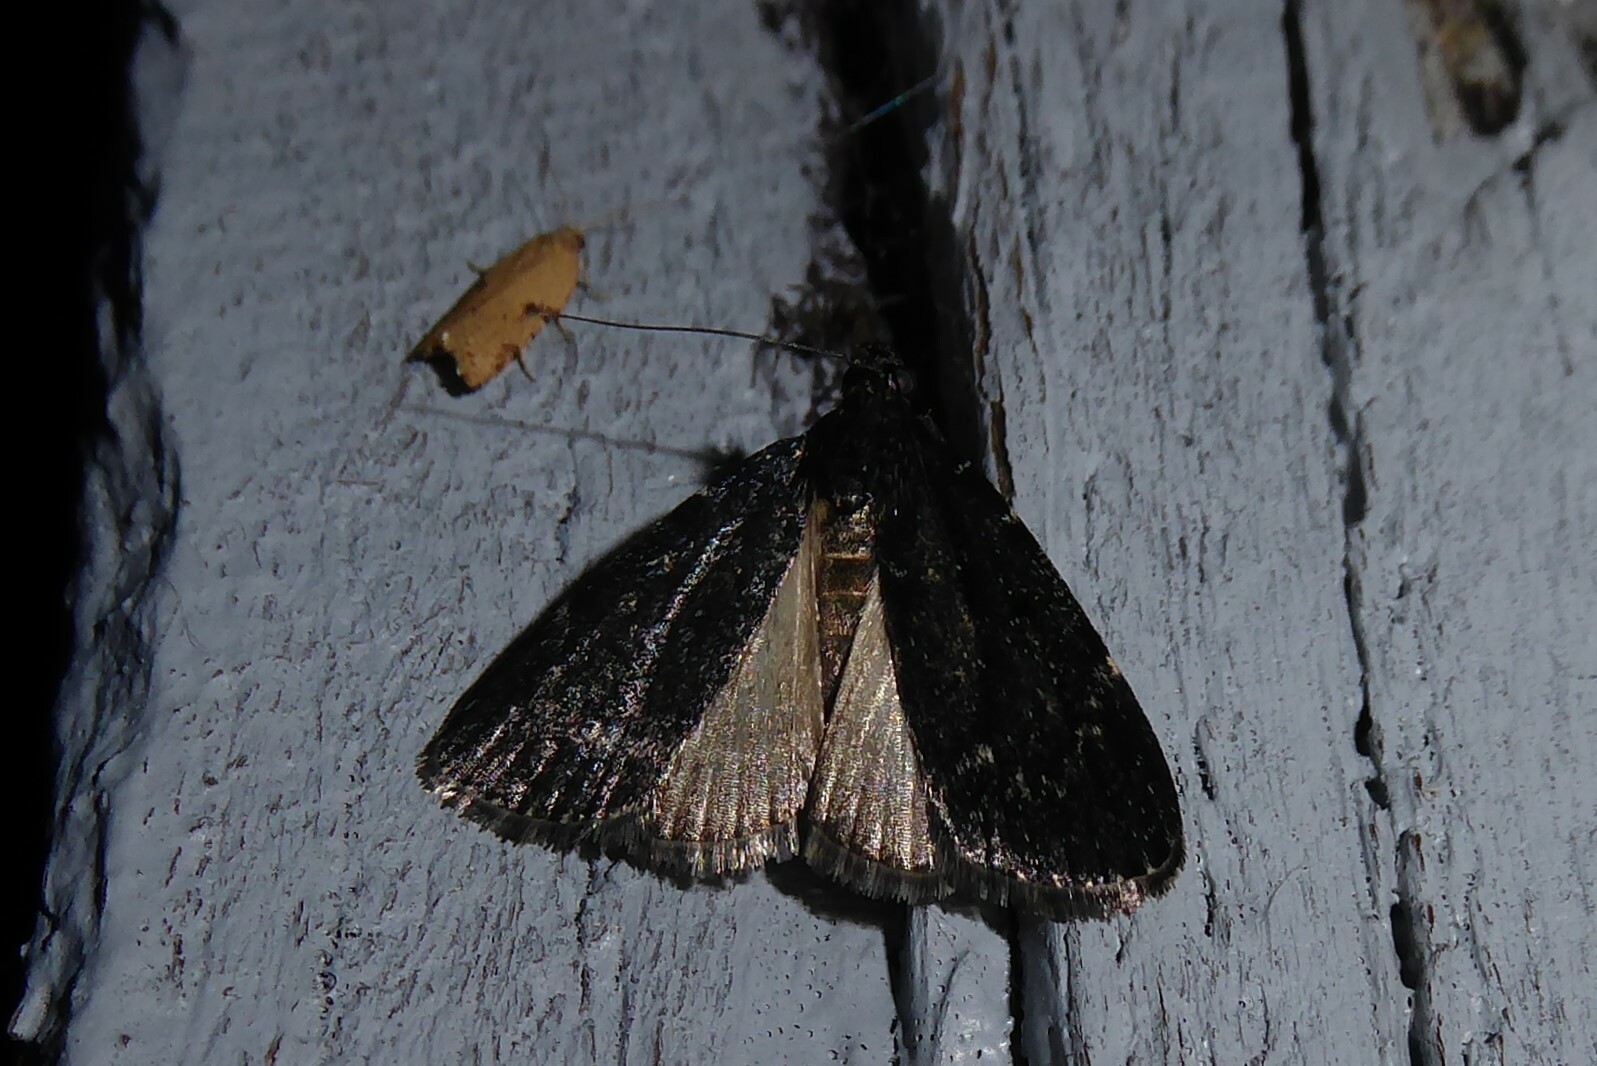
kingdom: Animalia
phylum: Arthropoda
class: Insecta
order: Lepidoptera
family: Pyralidae
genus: Stericta
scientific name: Stericta carbonalis
